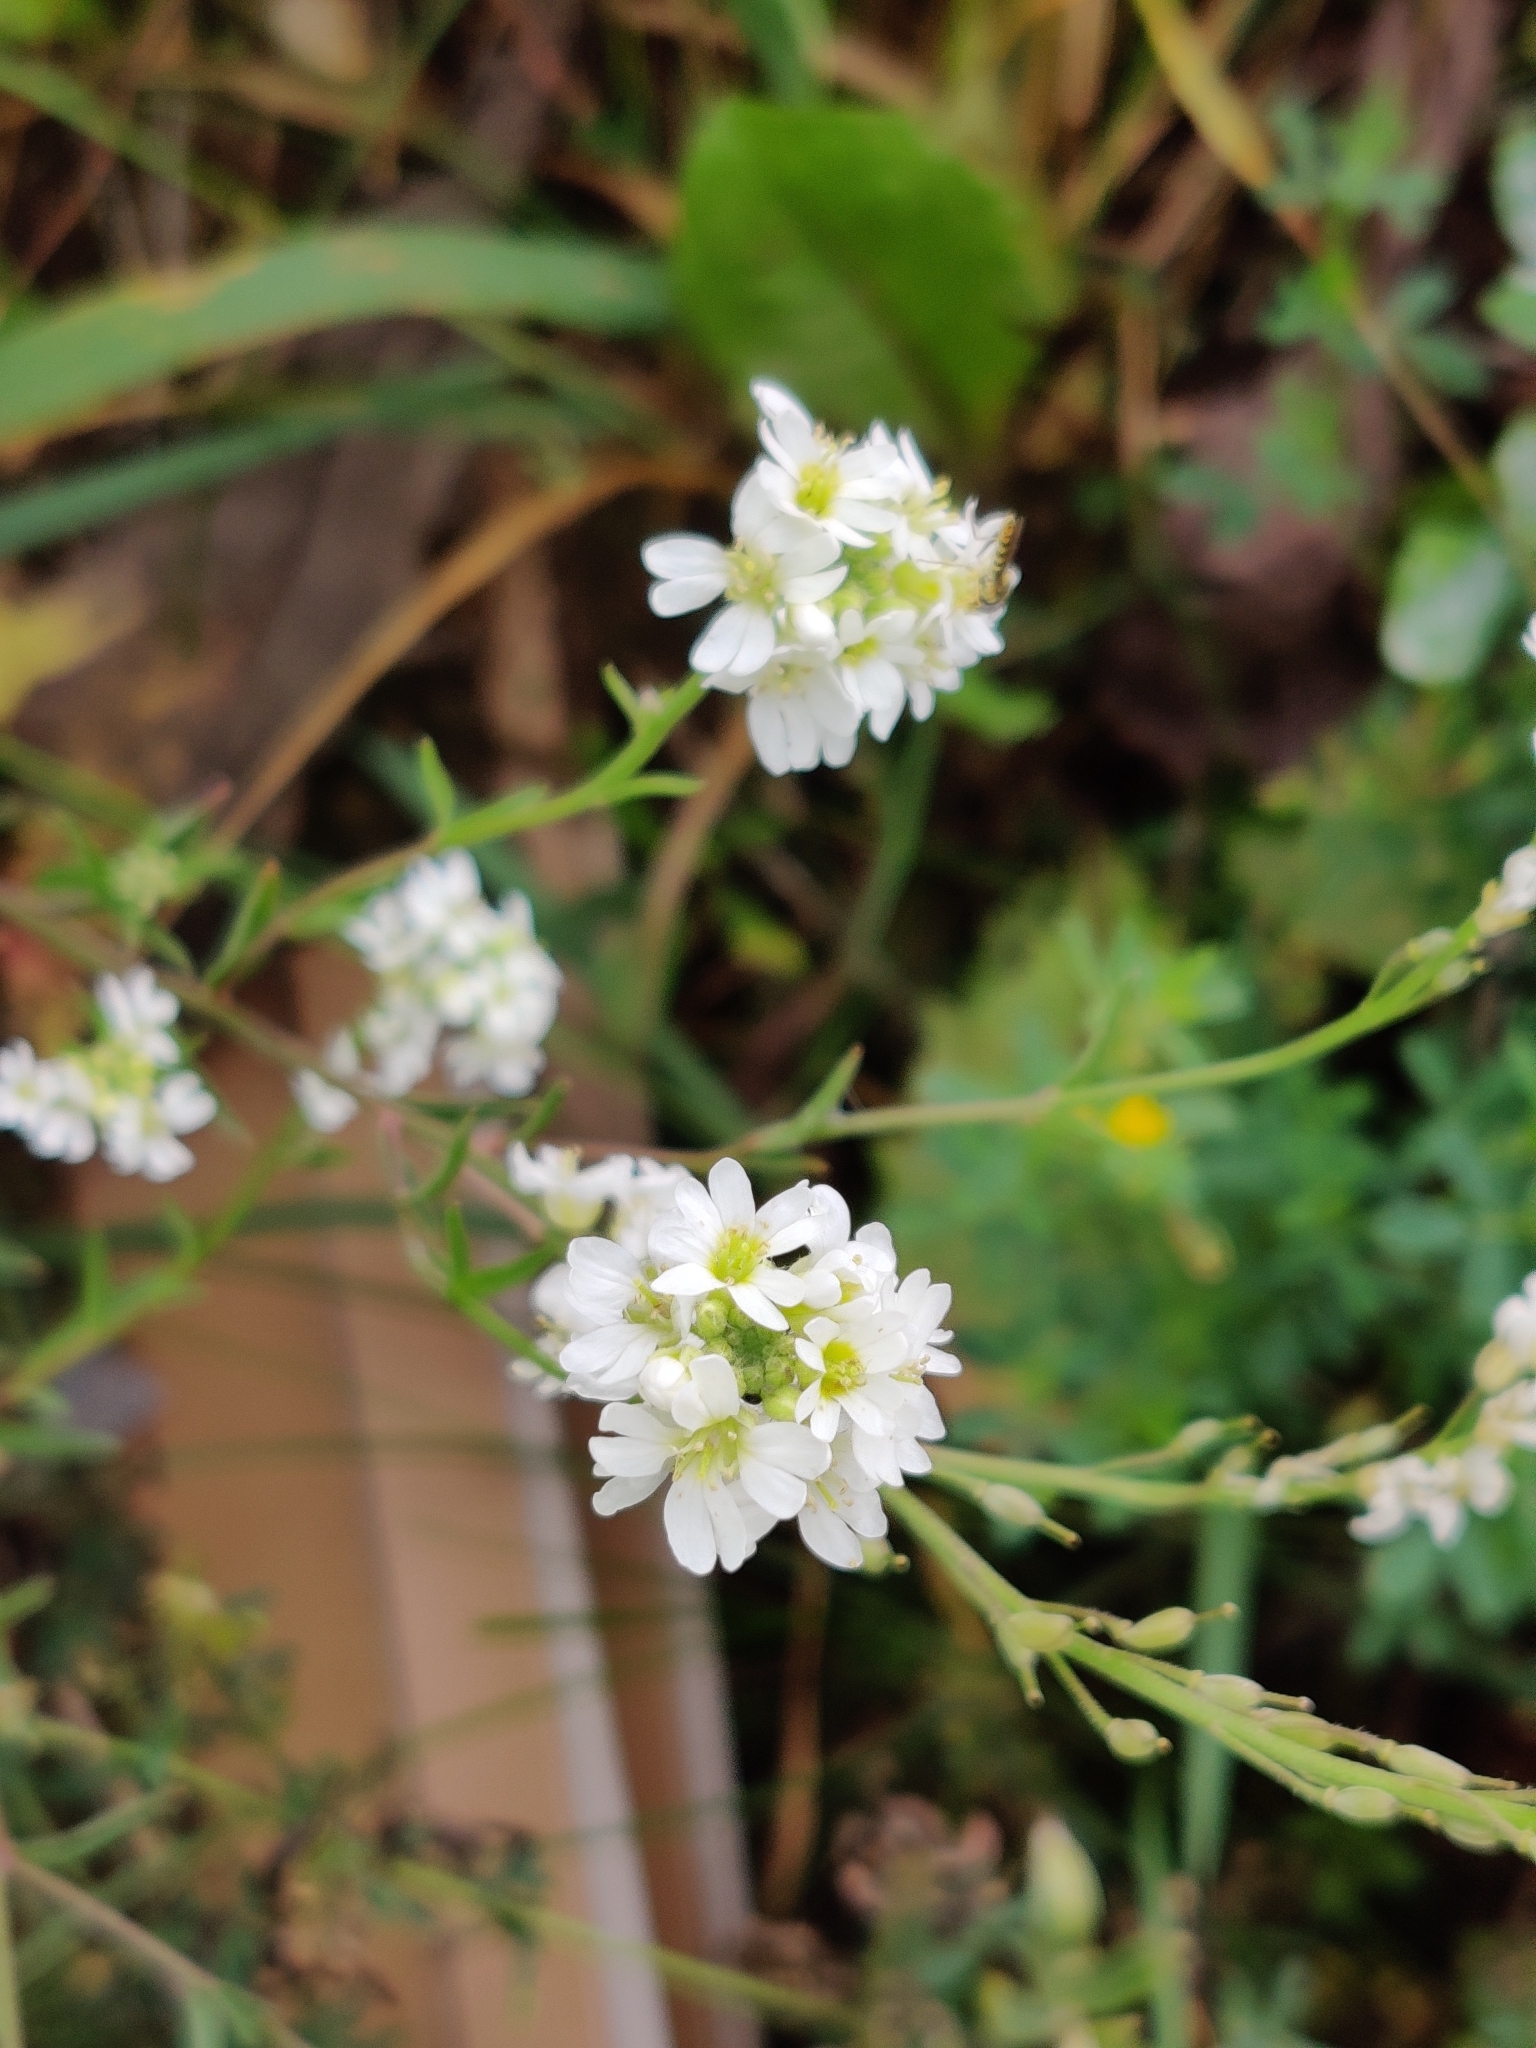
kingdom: Plantae
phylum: Tracheophyta
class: Magnoliopsida
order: Brassicales
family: Brassicaceae
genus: Berteroa
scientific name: Berteroa incana
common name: Hoary alison
